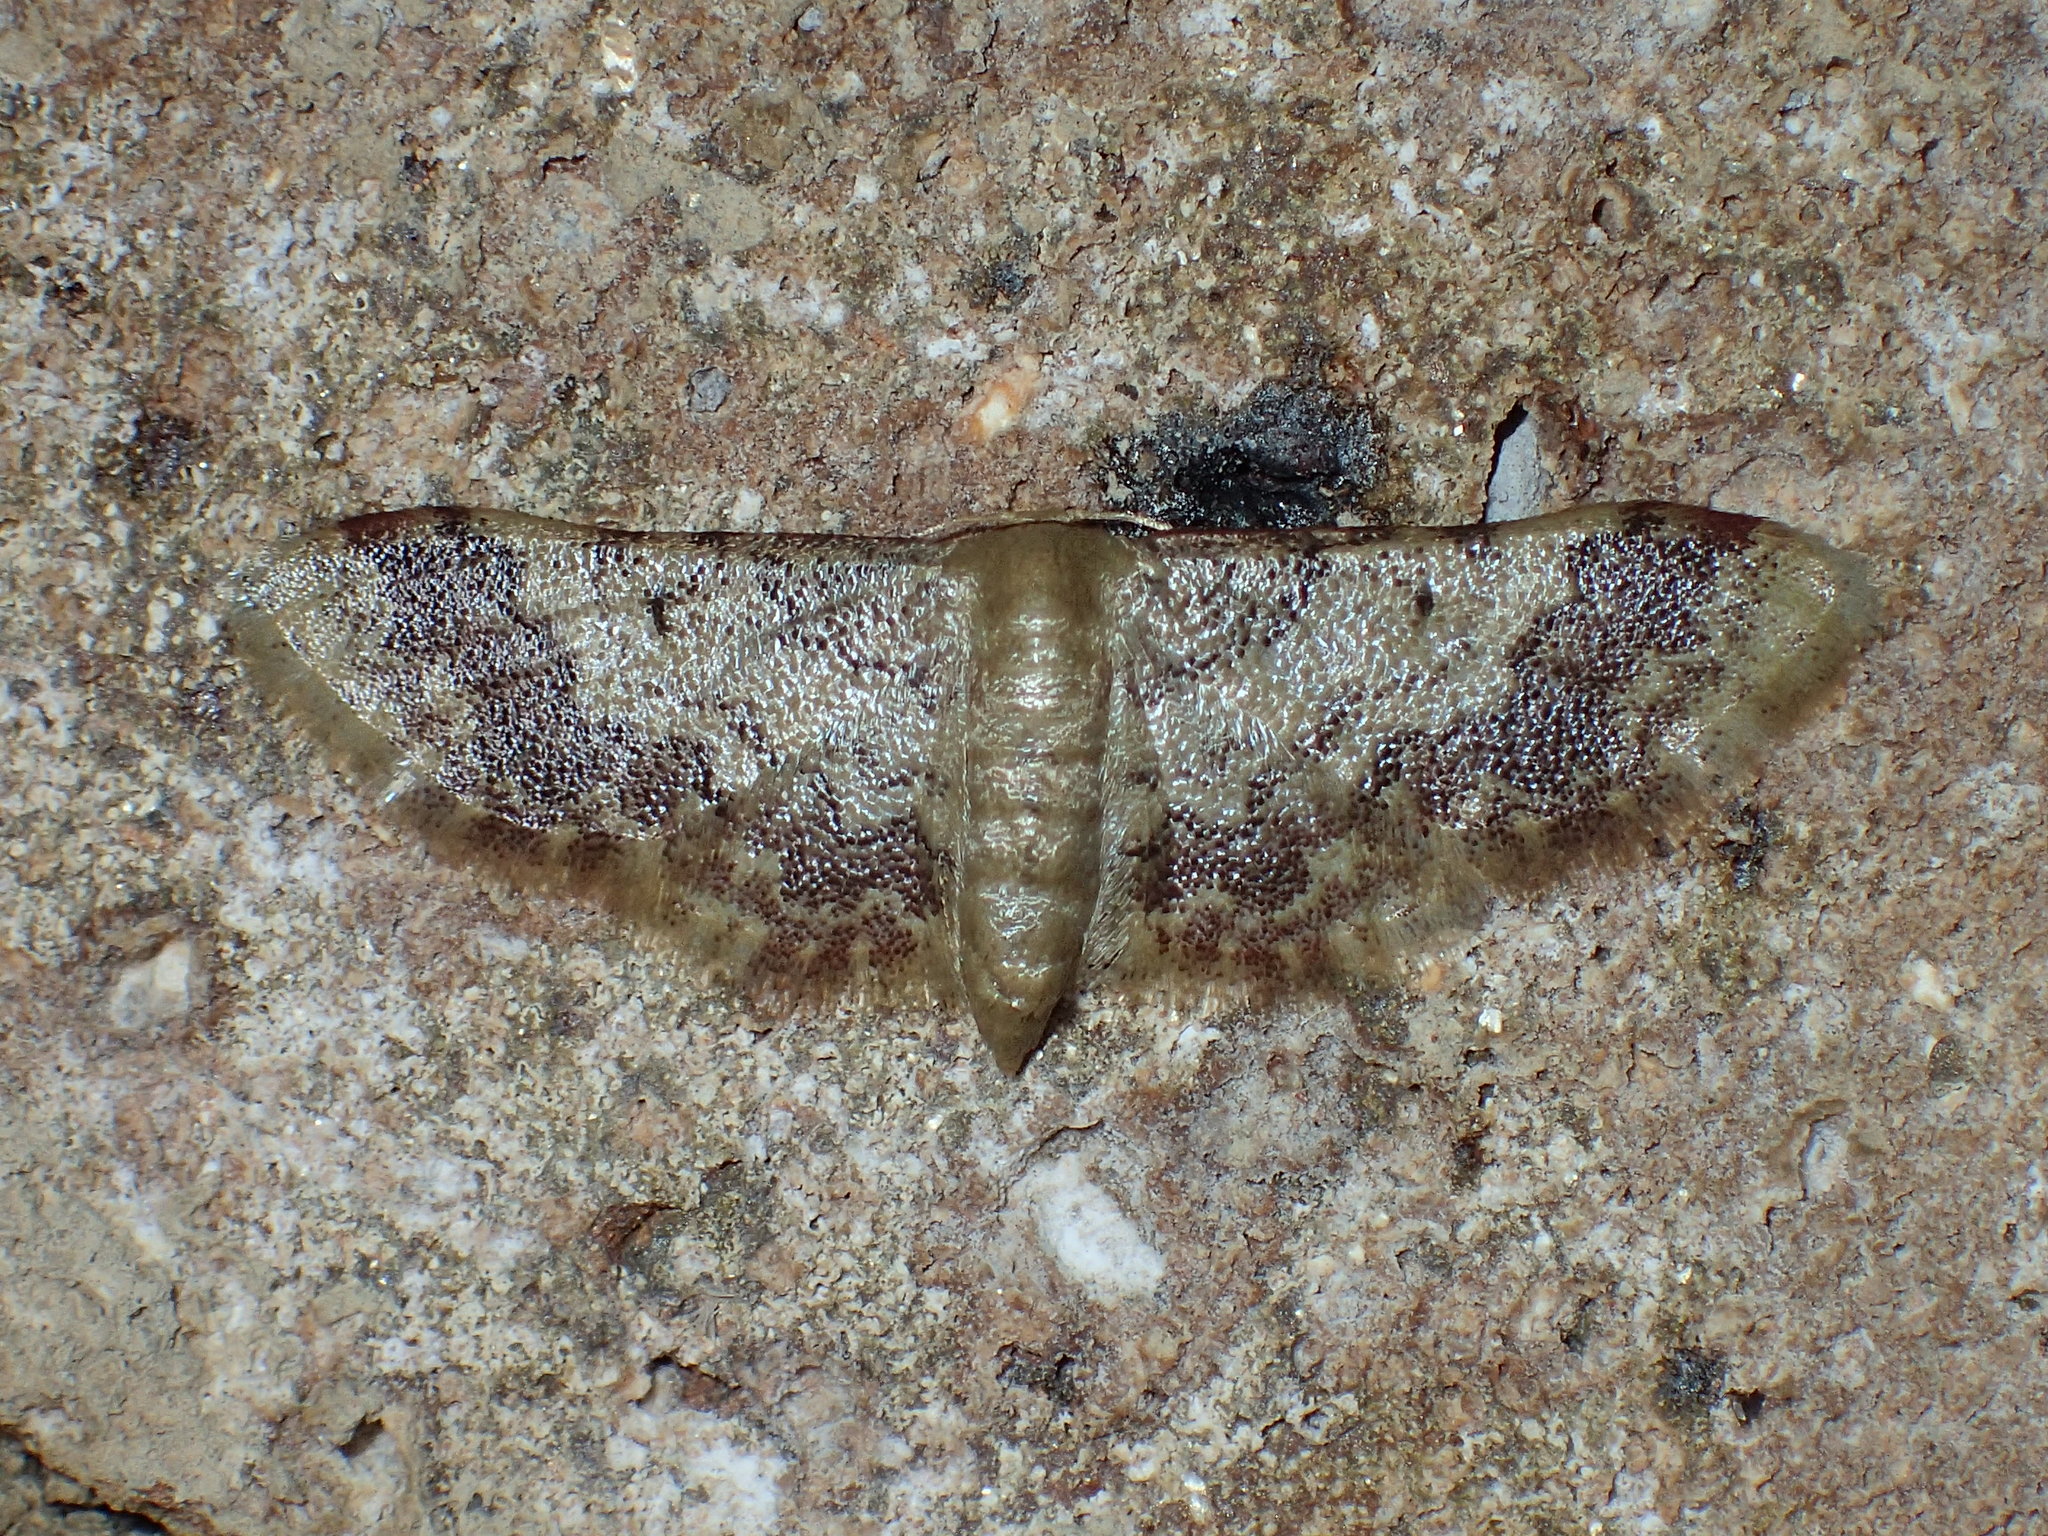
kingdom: Animalia
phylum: Arthropoda
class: Insecta
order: Lepidoptera
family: Geometridae
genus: Idaea
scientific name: Idaea furciferata
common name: Notch-winged wave
